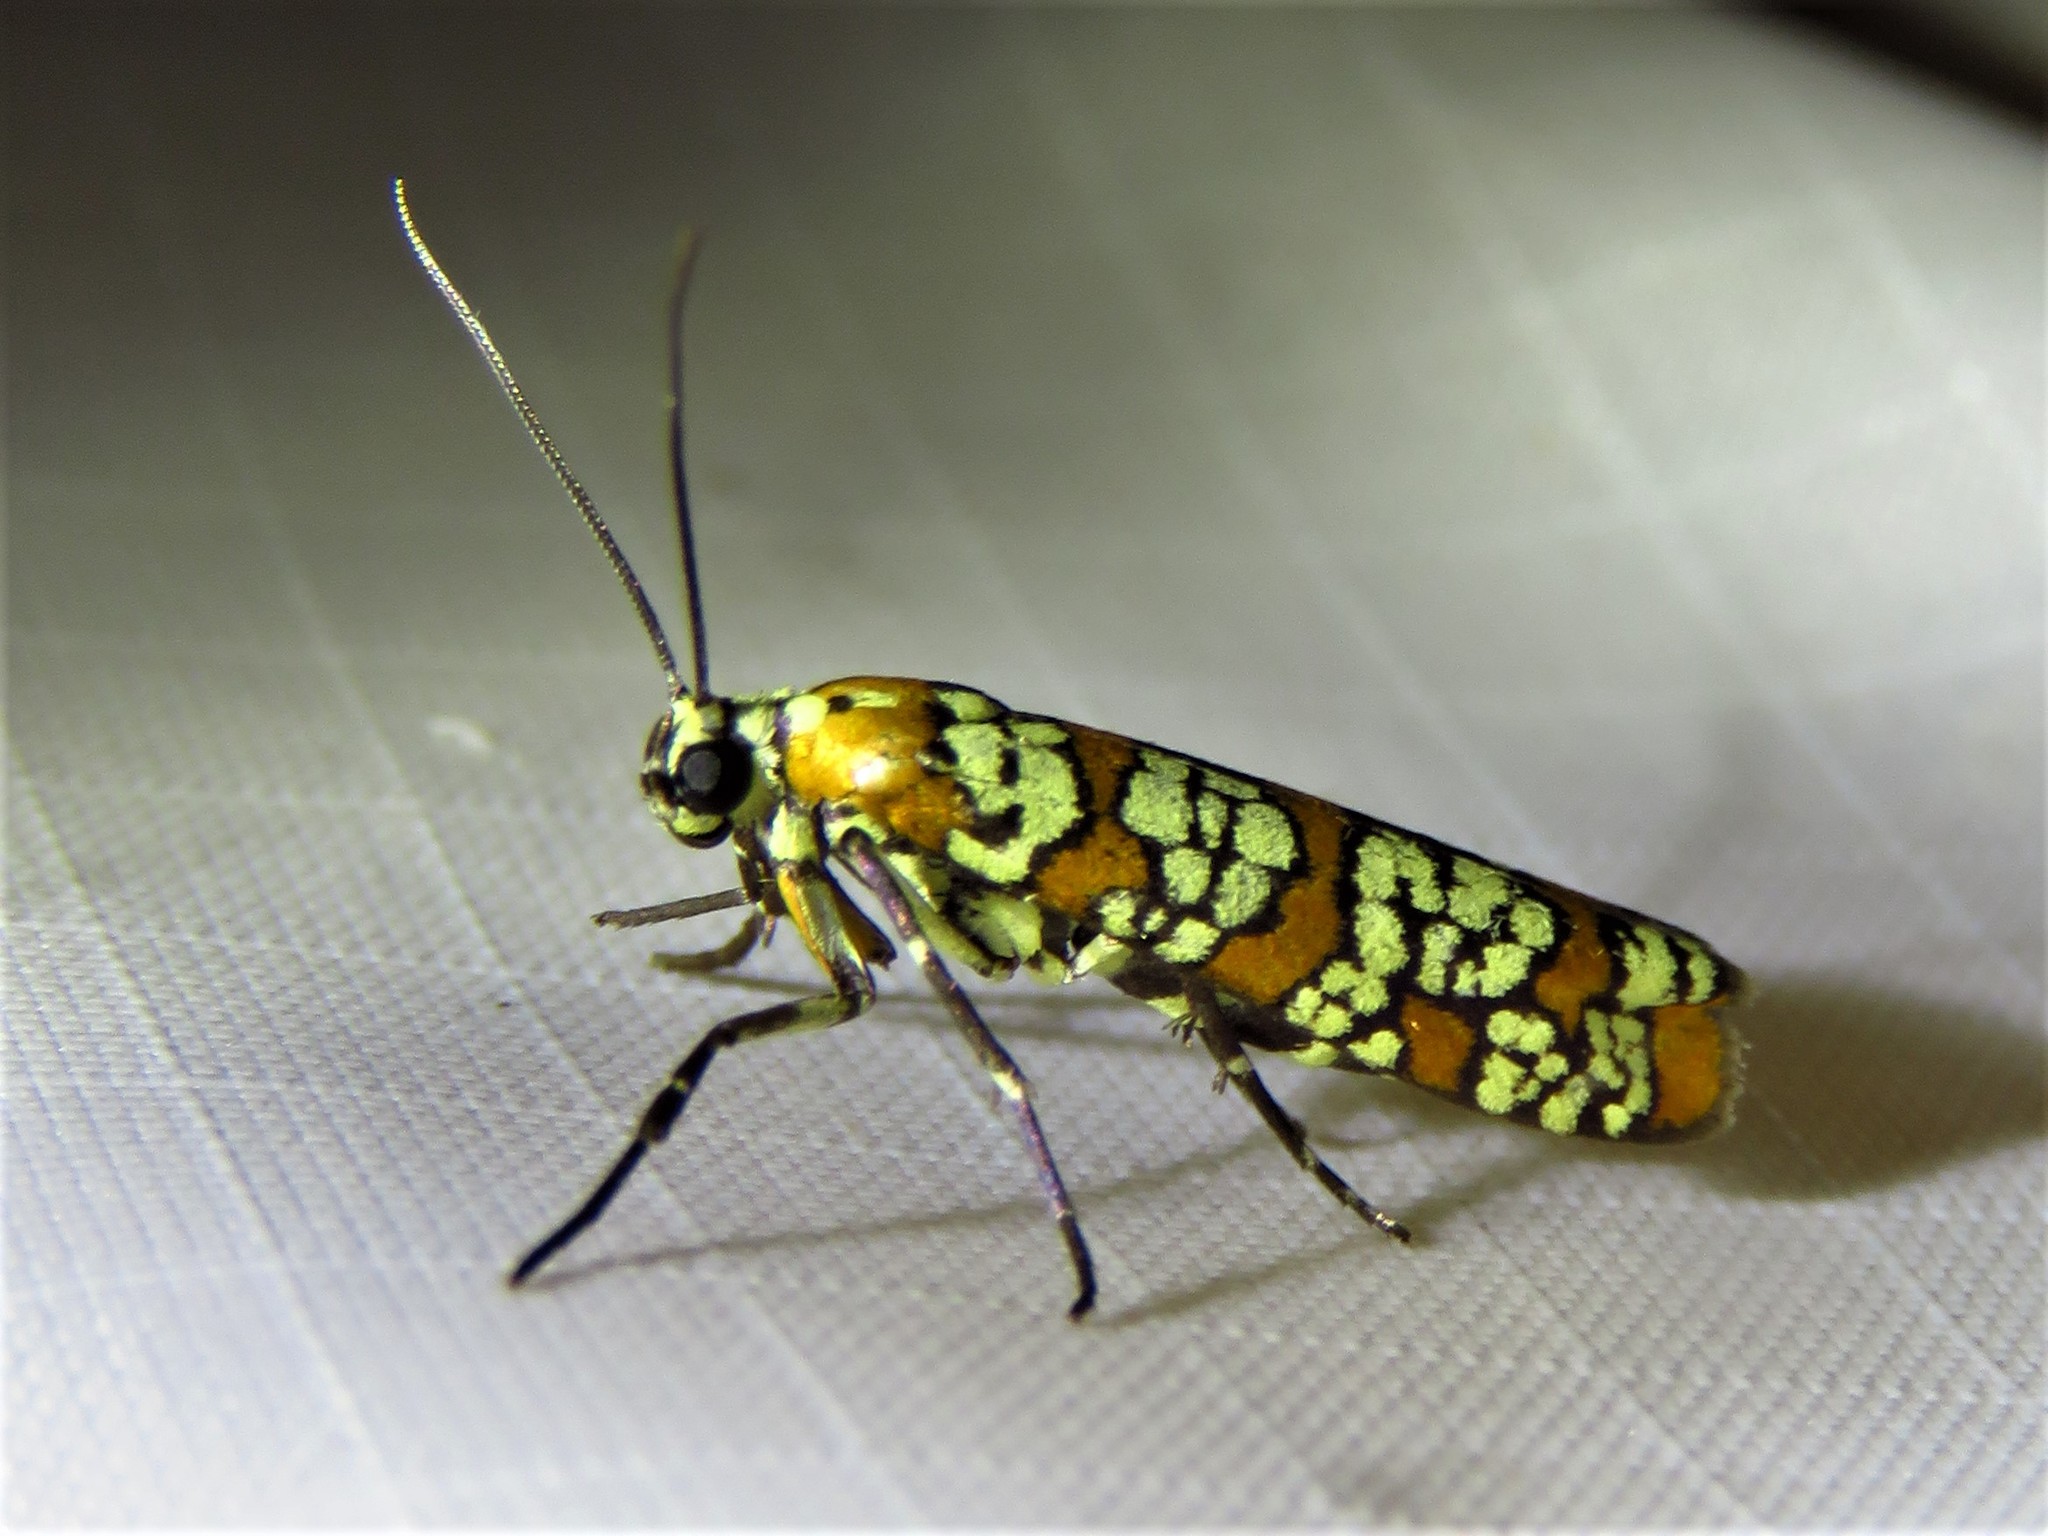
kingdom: Animalia
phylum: Arthropoda
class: Insecta
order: Lepidoptera
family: Attevidae
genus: Atteva
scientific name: Atteva punctella
